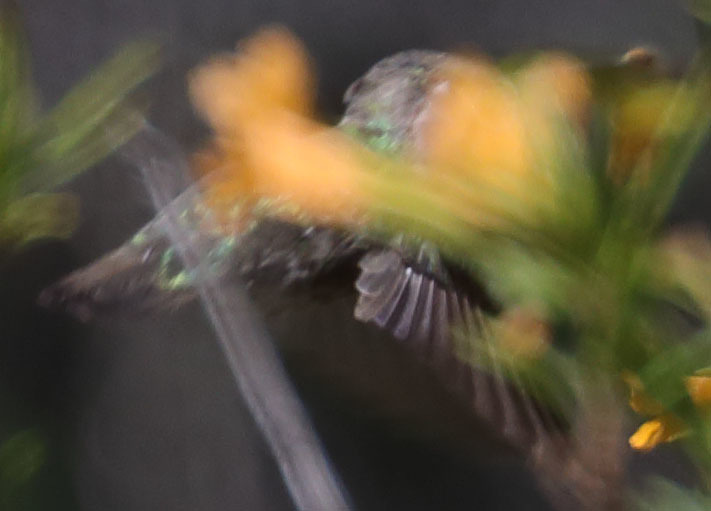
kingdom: Animalia
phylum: Chordata
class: Aves
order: Apodiformes
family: Trochilidae
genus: Calypte
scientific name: Calypte anna
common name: Anna's hummingbird
